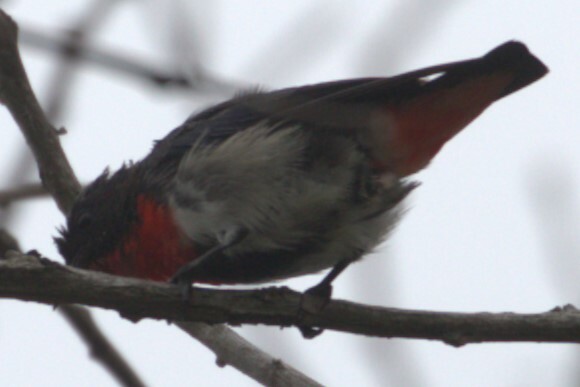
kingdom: Animalia
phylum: Chordata
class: Aves
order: Passeriformes
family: Dicaeidae
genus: Dicaeum
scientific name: Dicaeum hirundinaceum
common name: Mistletoebird
